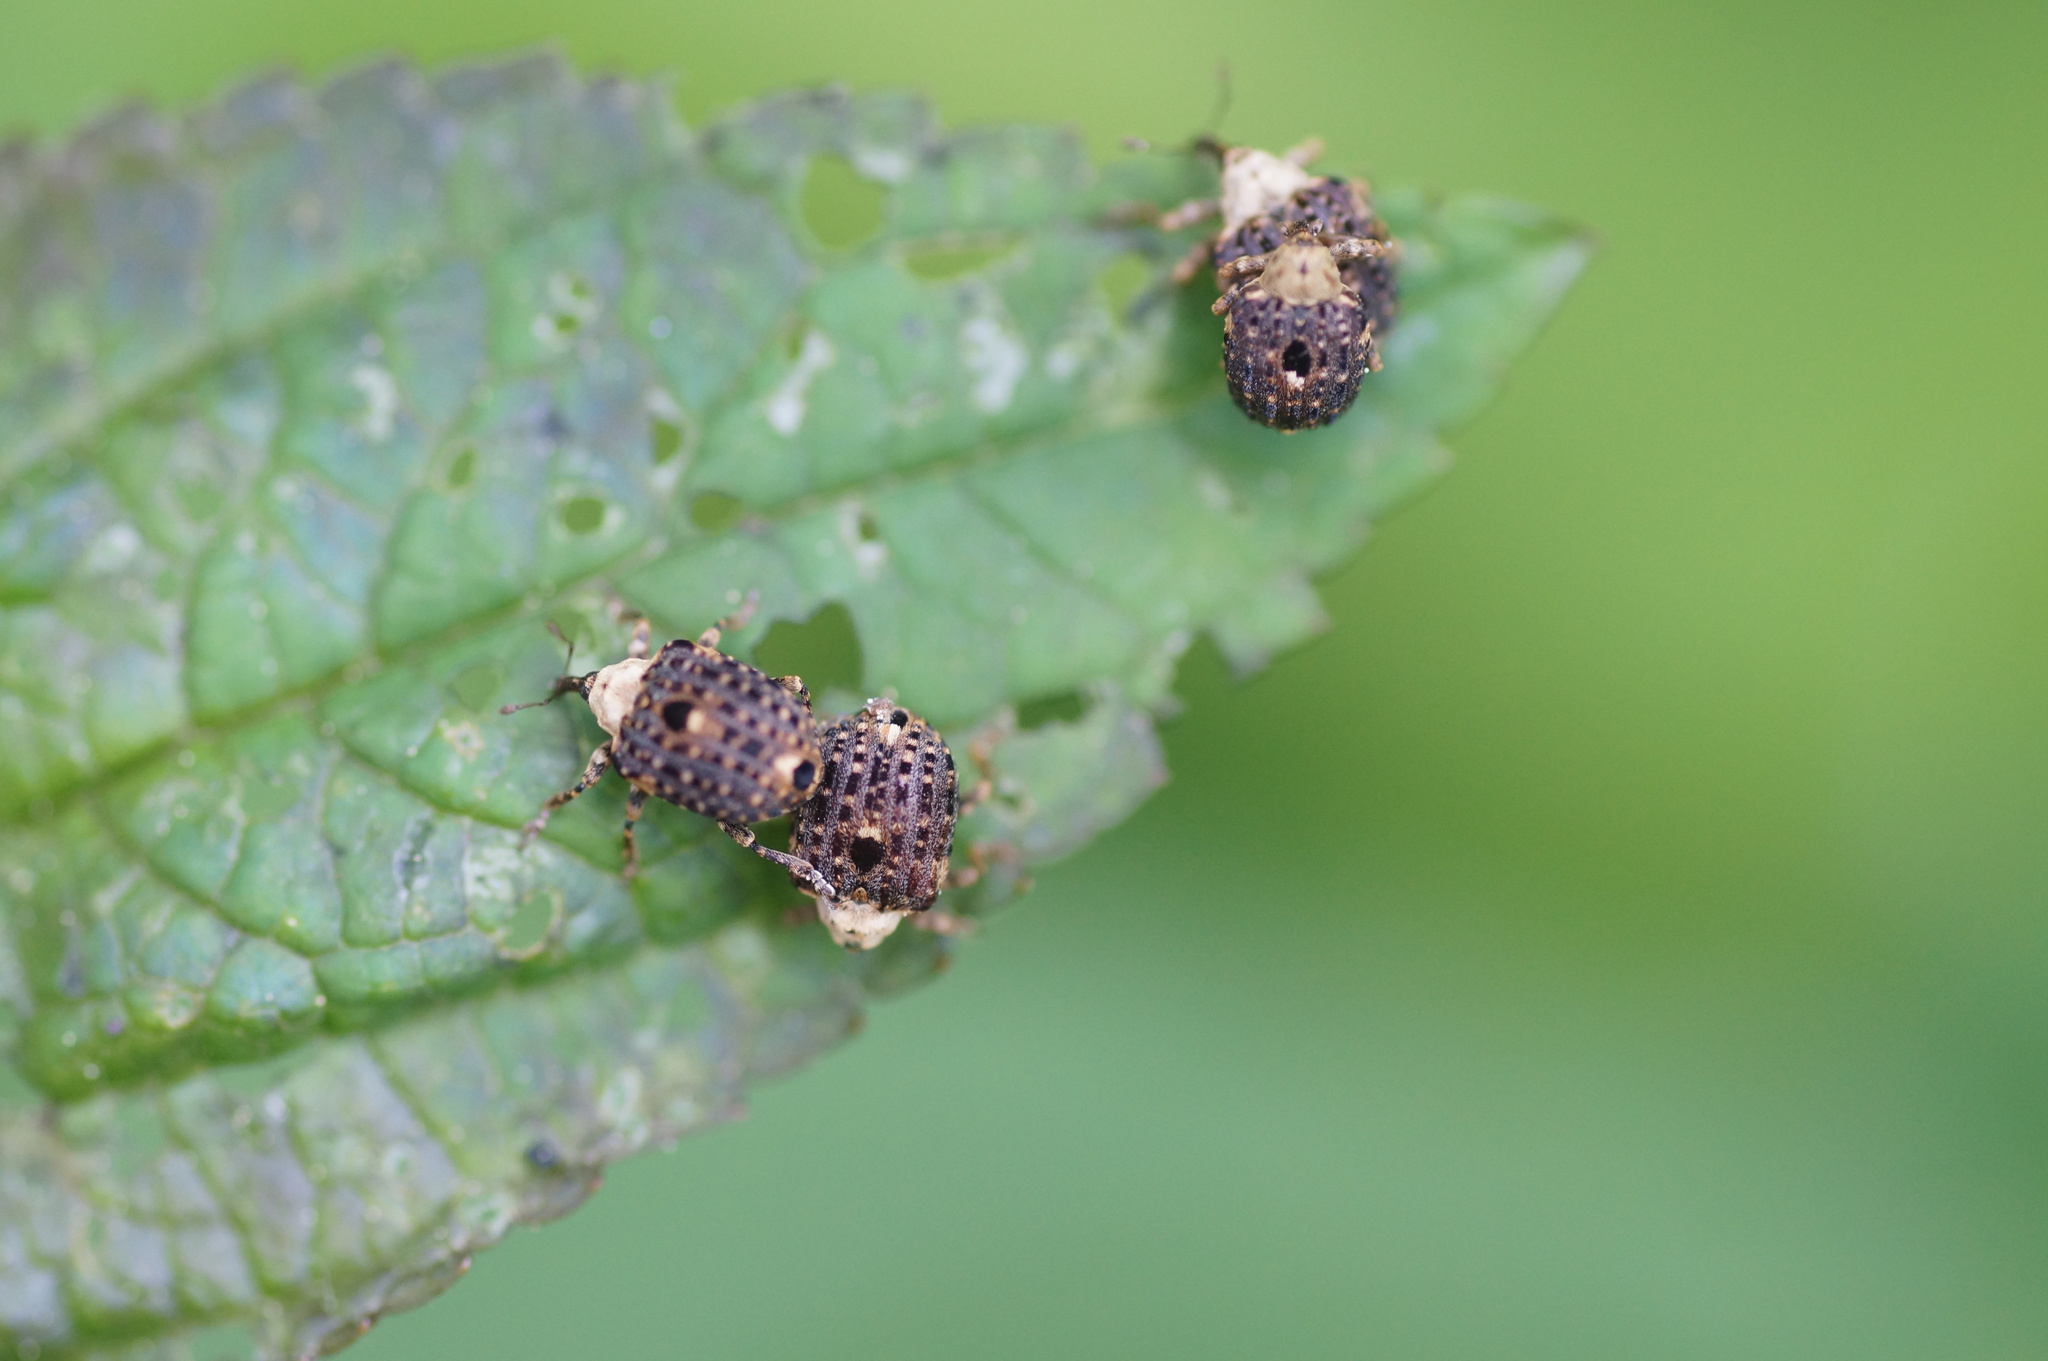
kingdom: Animalia
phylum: Arthropoda
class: Insecta
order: Coleoptera
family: Curculionidae
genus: Cionus
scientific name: Cionus scrophulariae
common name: Common figwort weevil
